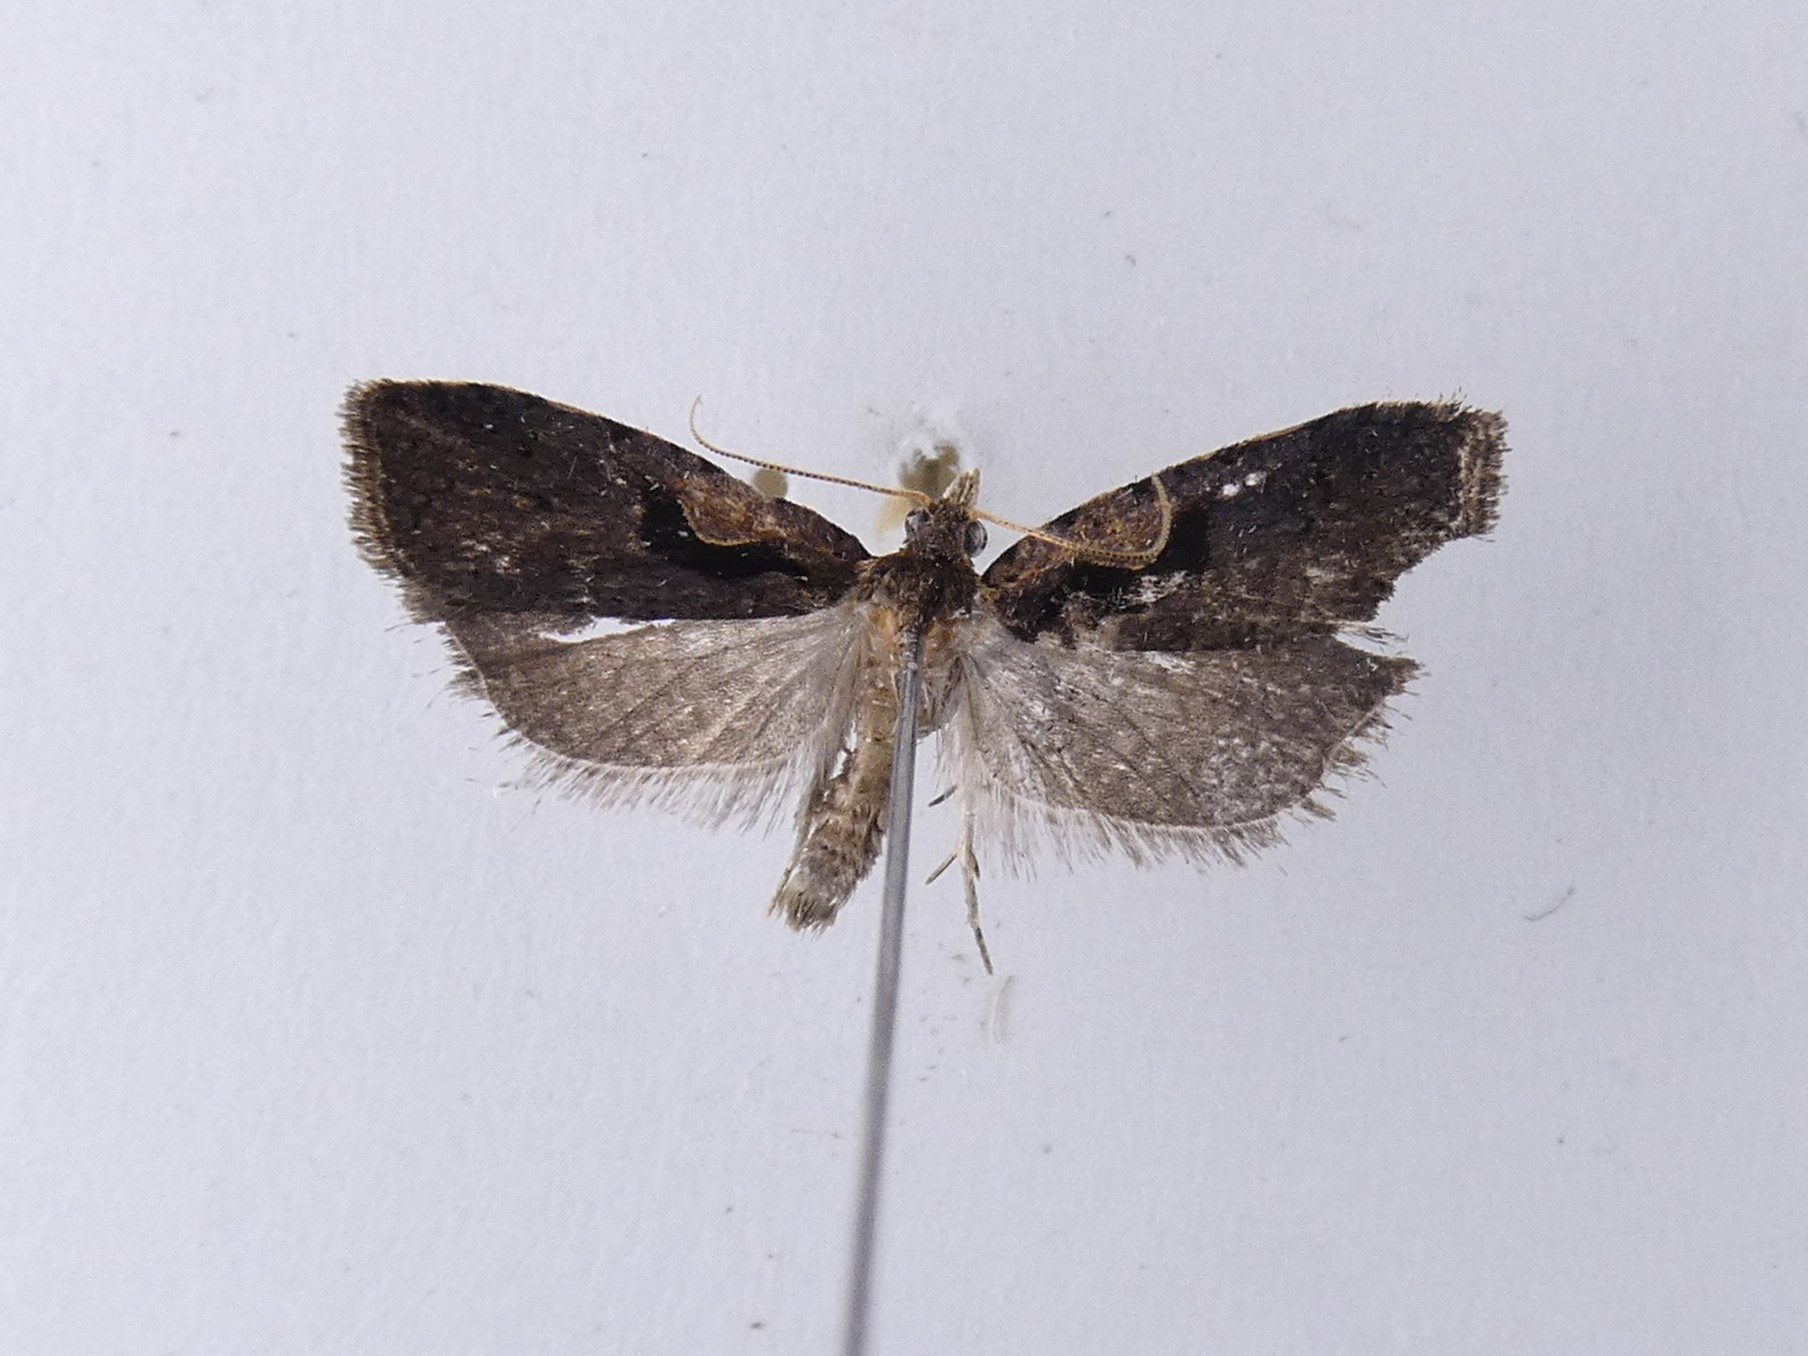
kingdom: Animalia
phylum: Arthropoda
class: Insecta
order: Lepidoptera
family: Tortricidae
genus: Cnephasia
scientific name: Cnephasia jactatana
